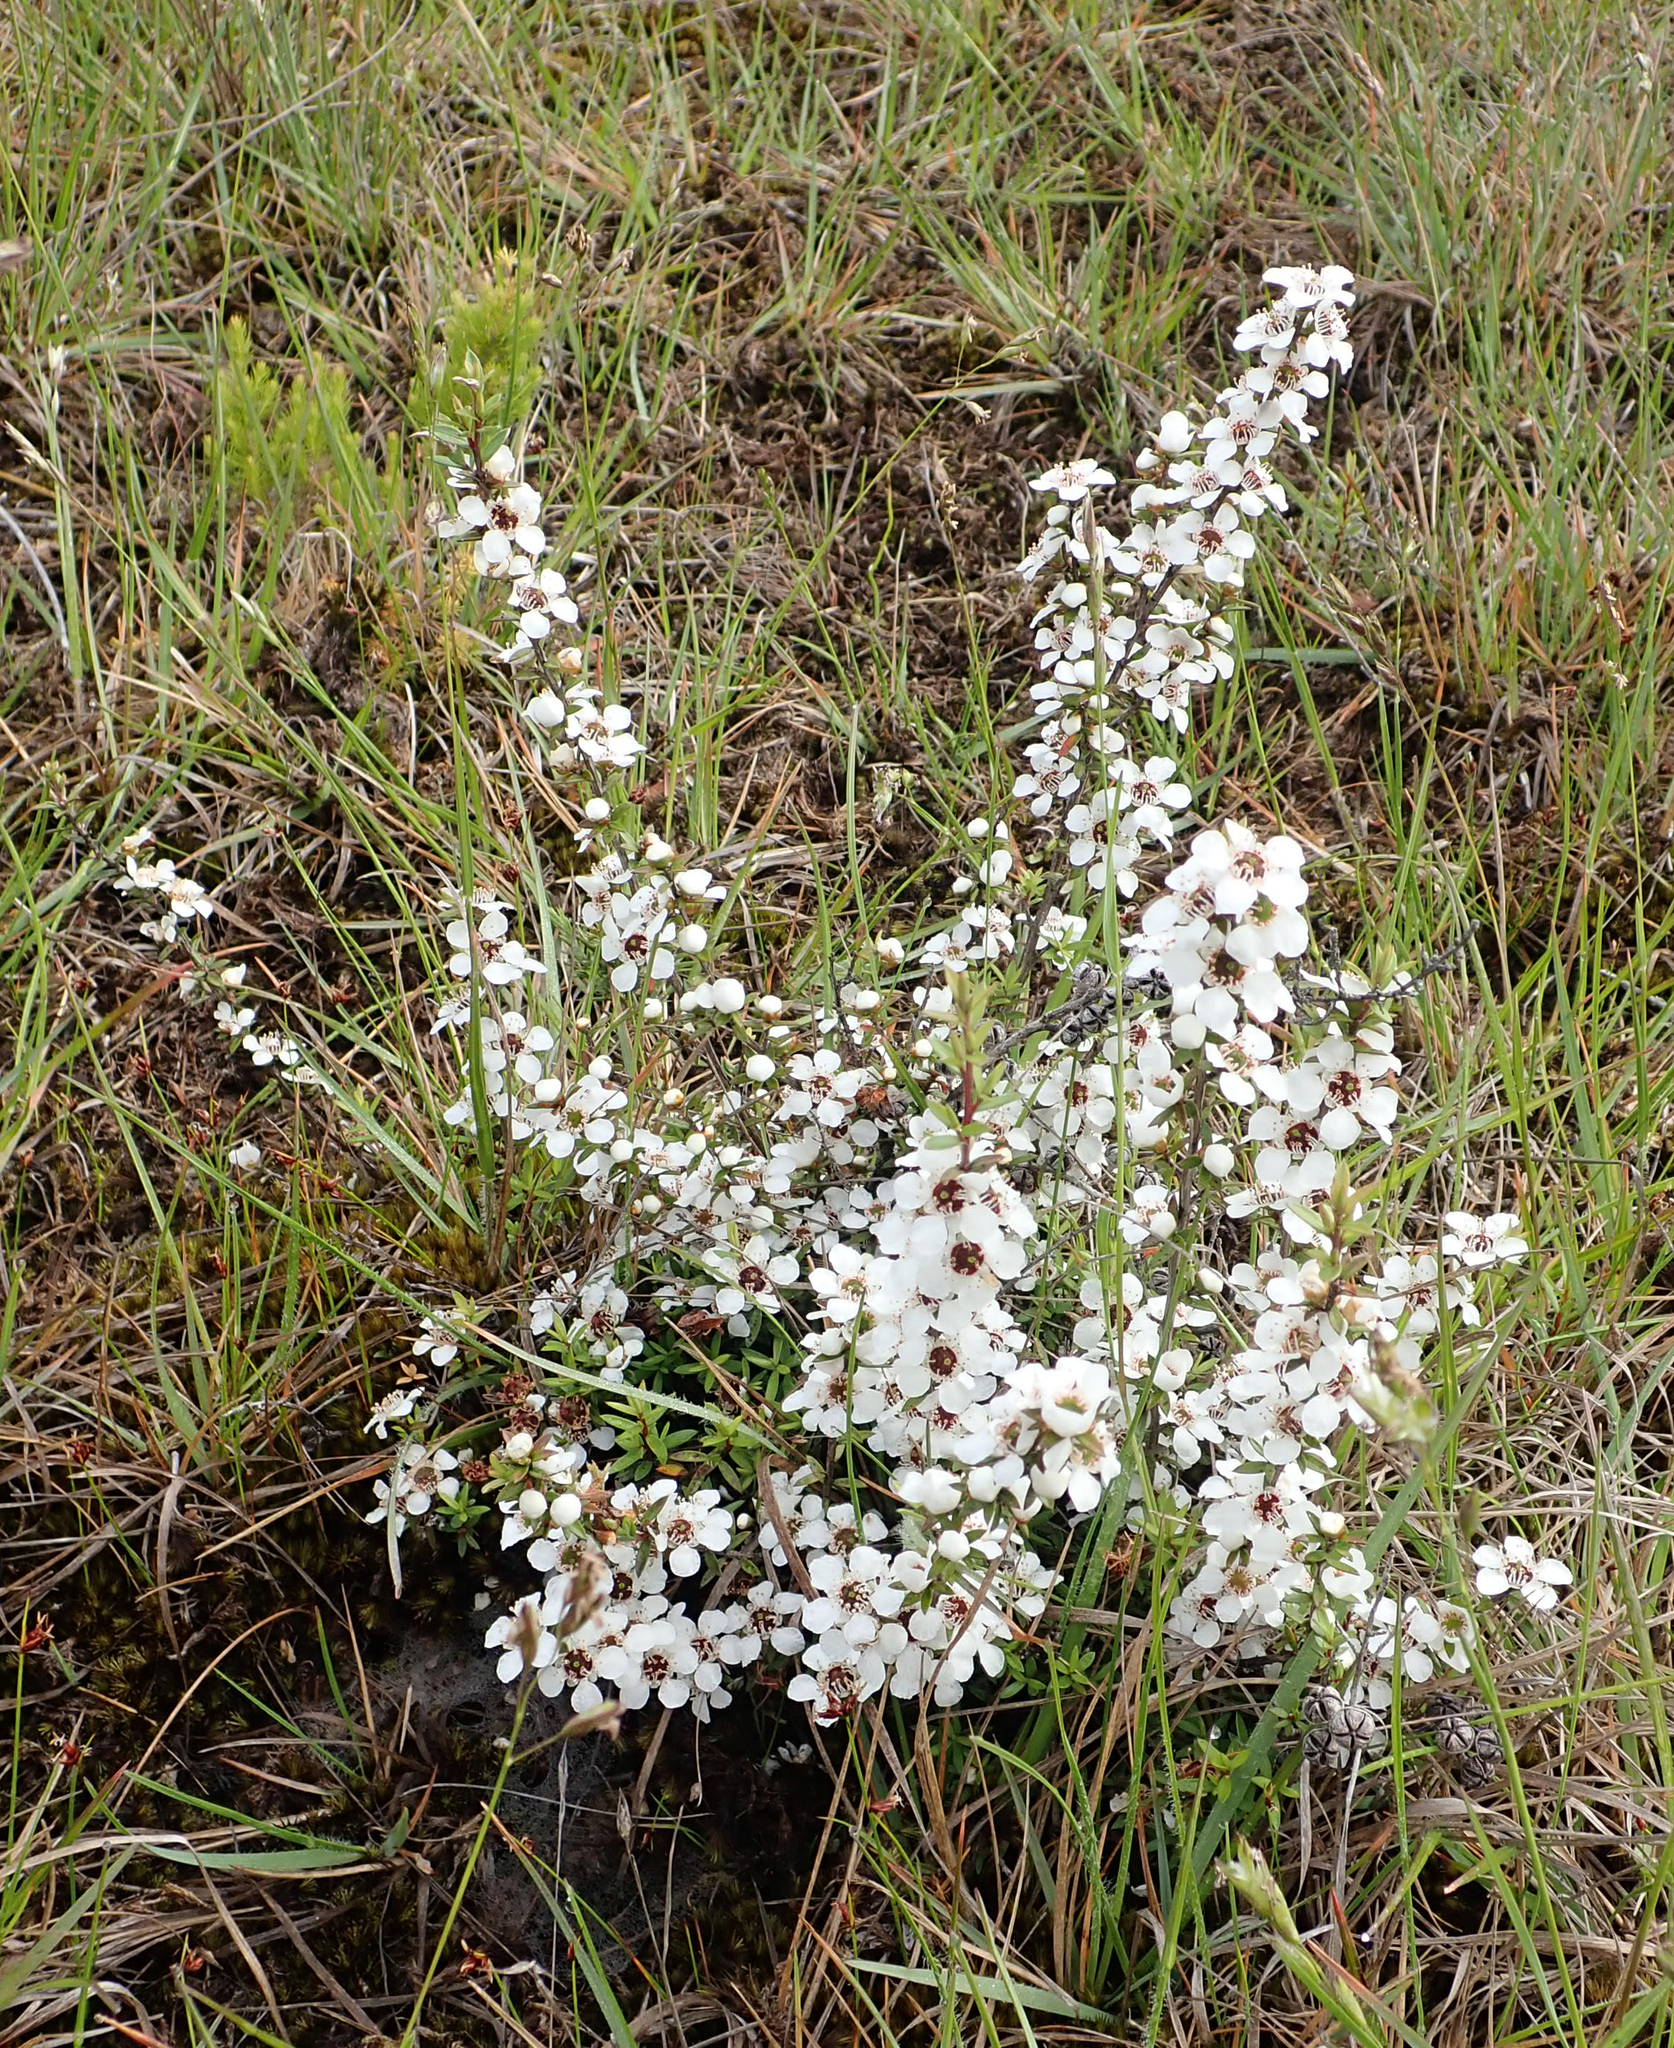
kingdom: Plantae
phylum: Tracheophyta
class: Magnoliopsida
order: Myrtales
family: Myrtaceae
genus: Leptospermum
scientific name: Leptospermum scoparium
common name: Broom tea-tree
